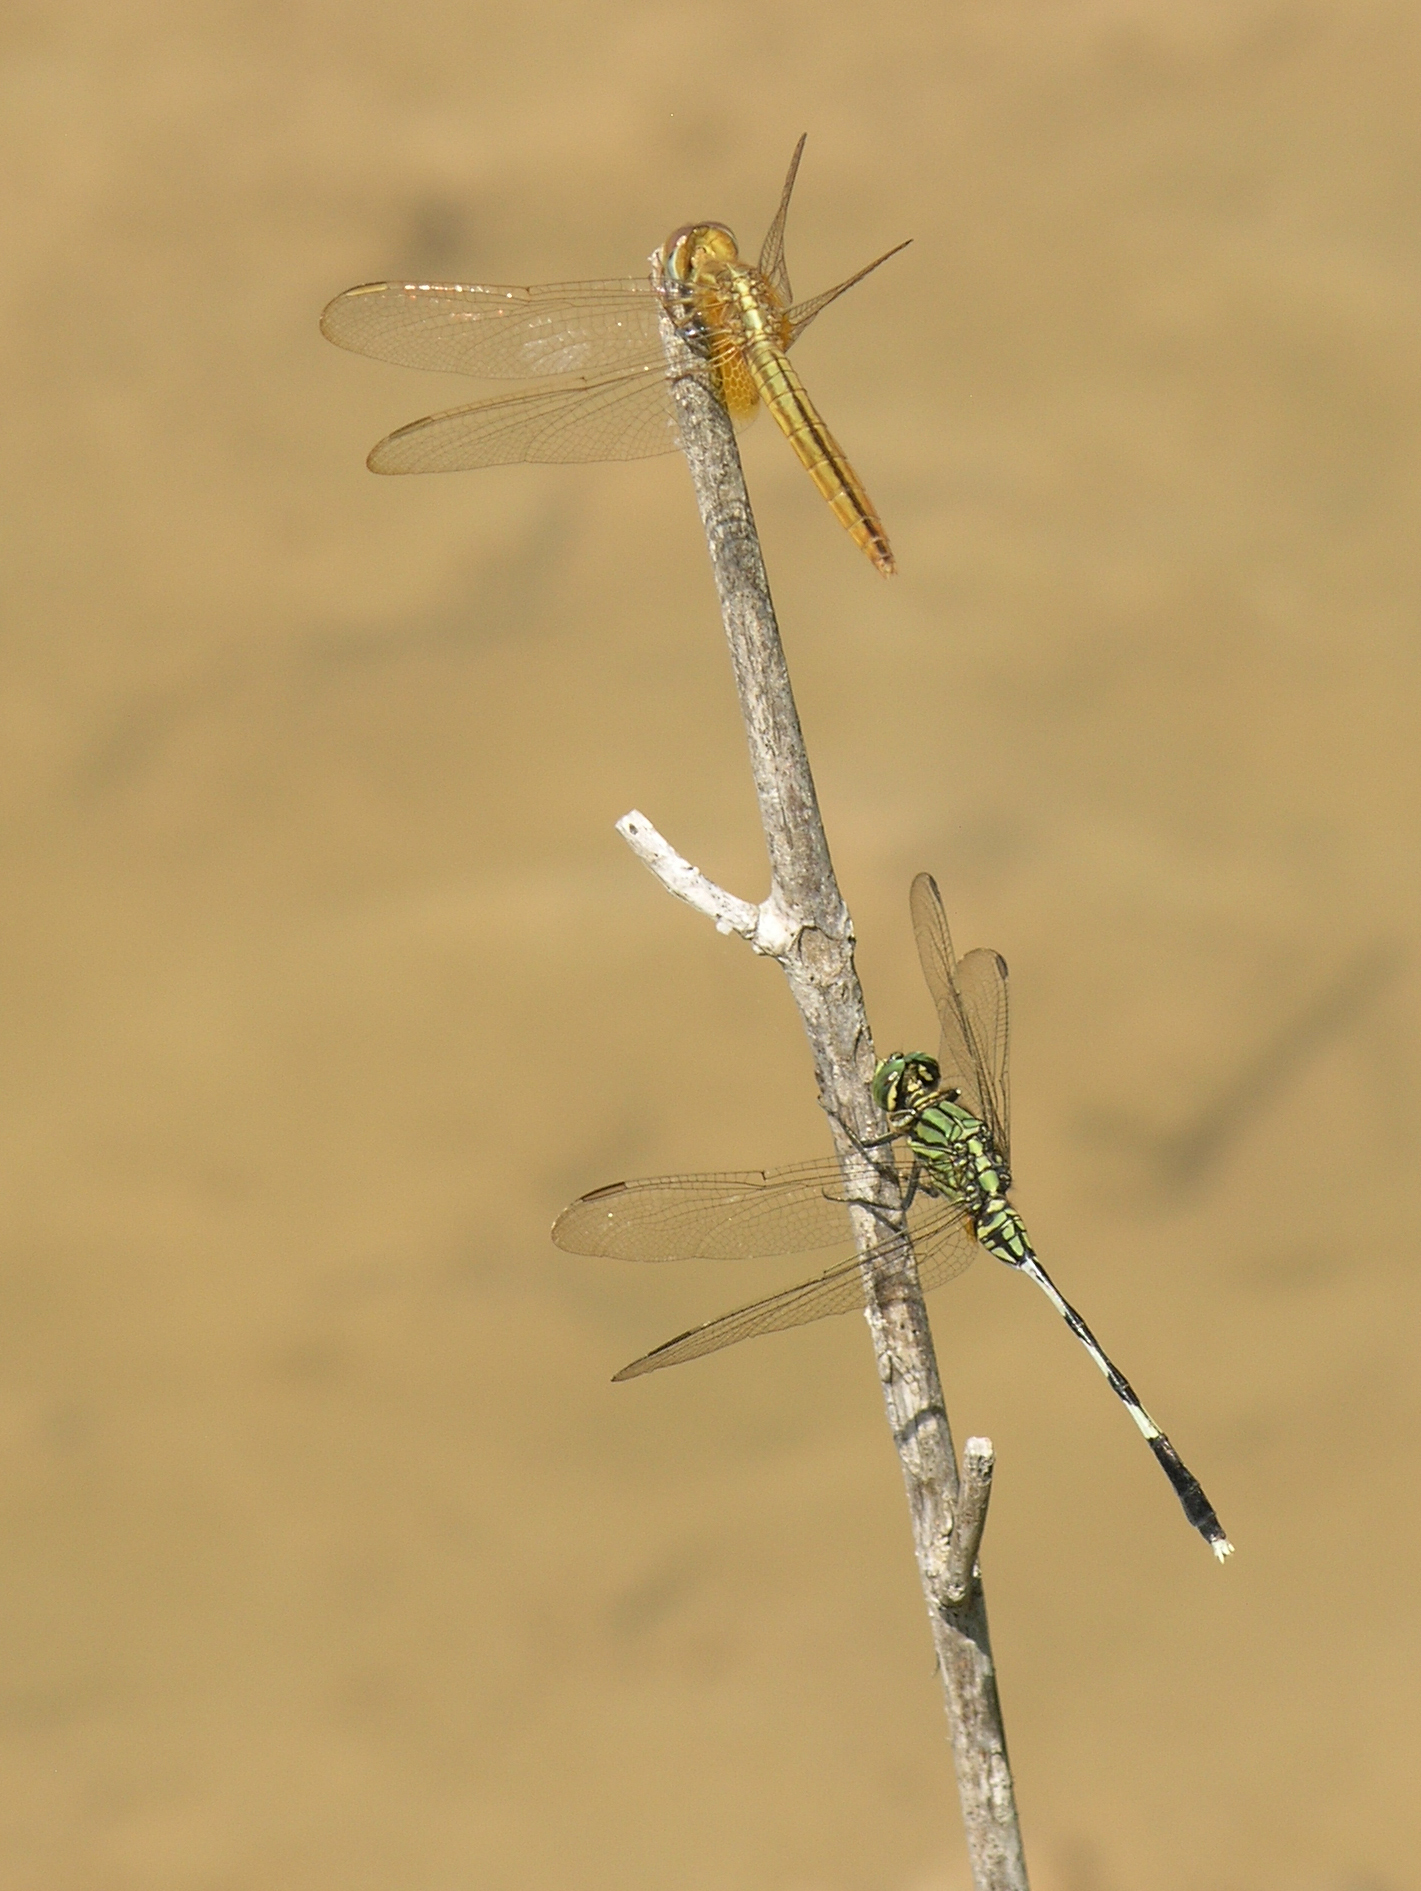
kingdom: Animalia
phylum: Arthropoda
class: Insecta
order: Odonata
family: Libellulidae
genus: Orthetrum
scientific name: Orthetrum sabina
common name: Slender skimmer
